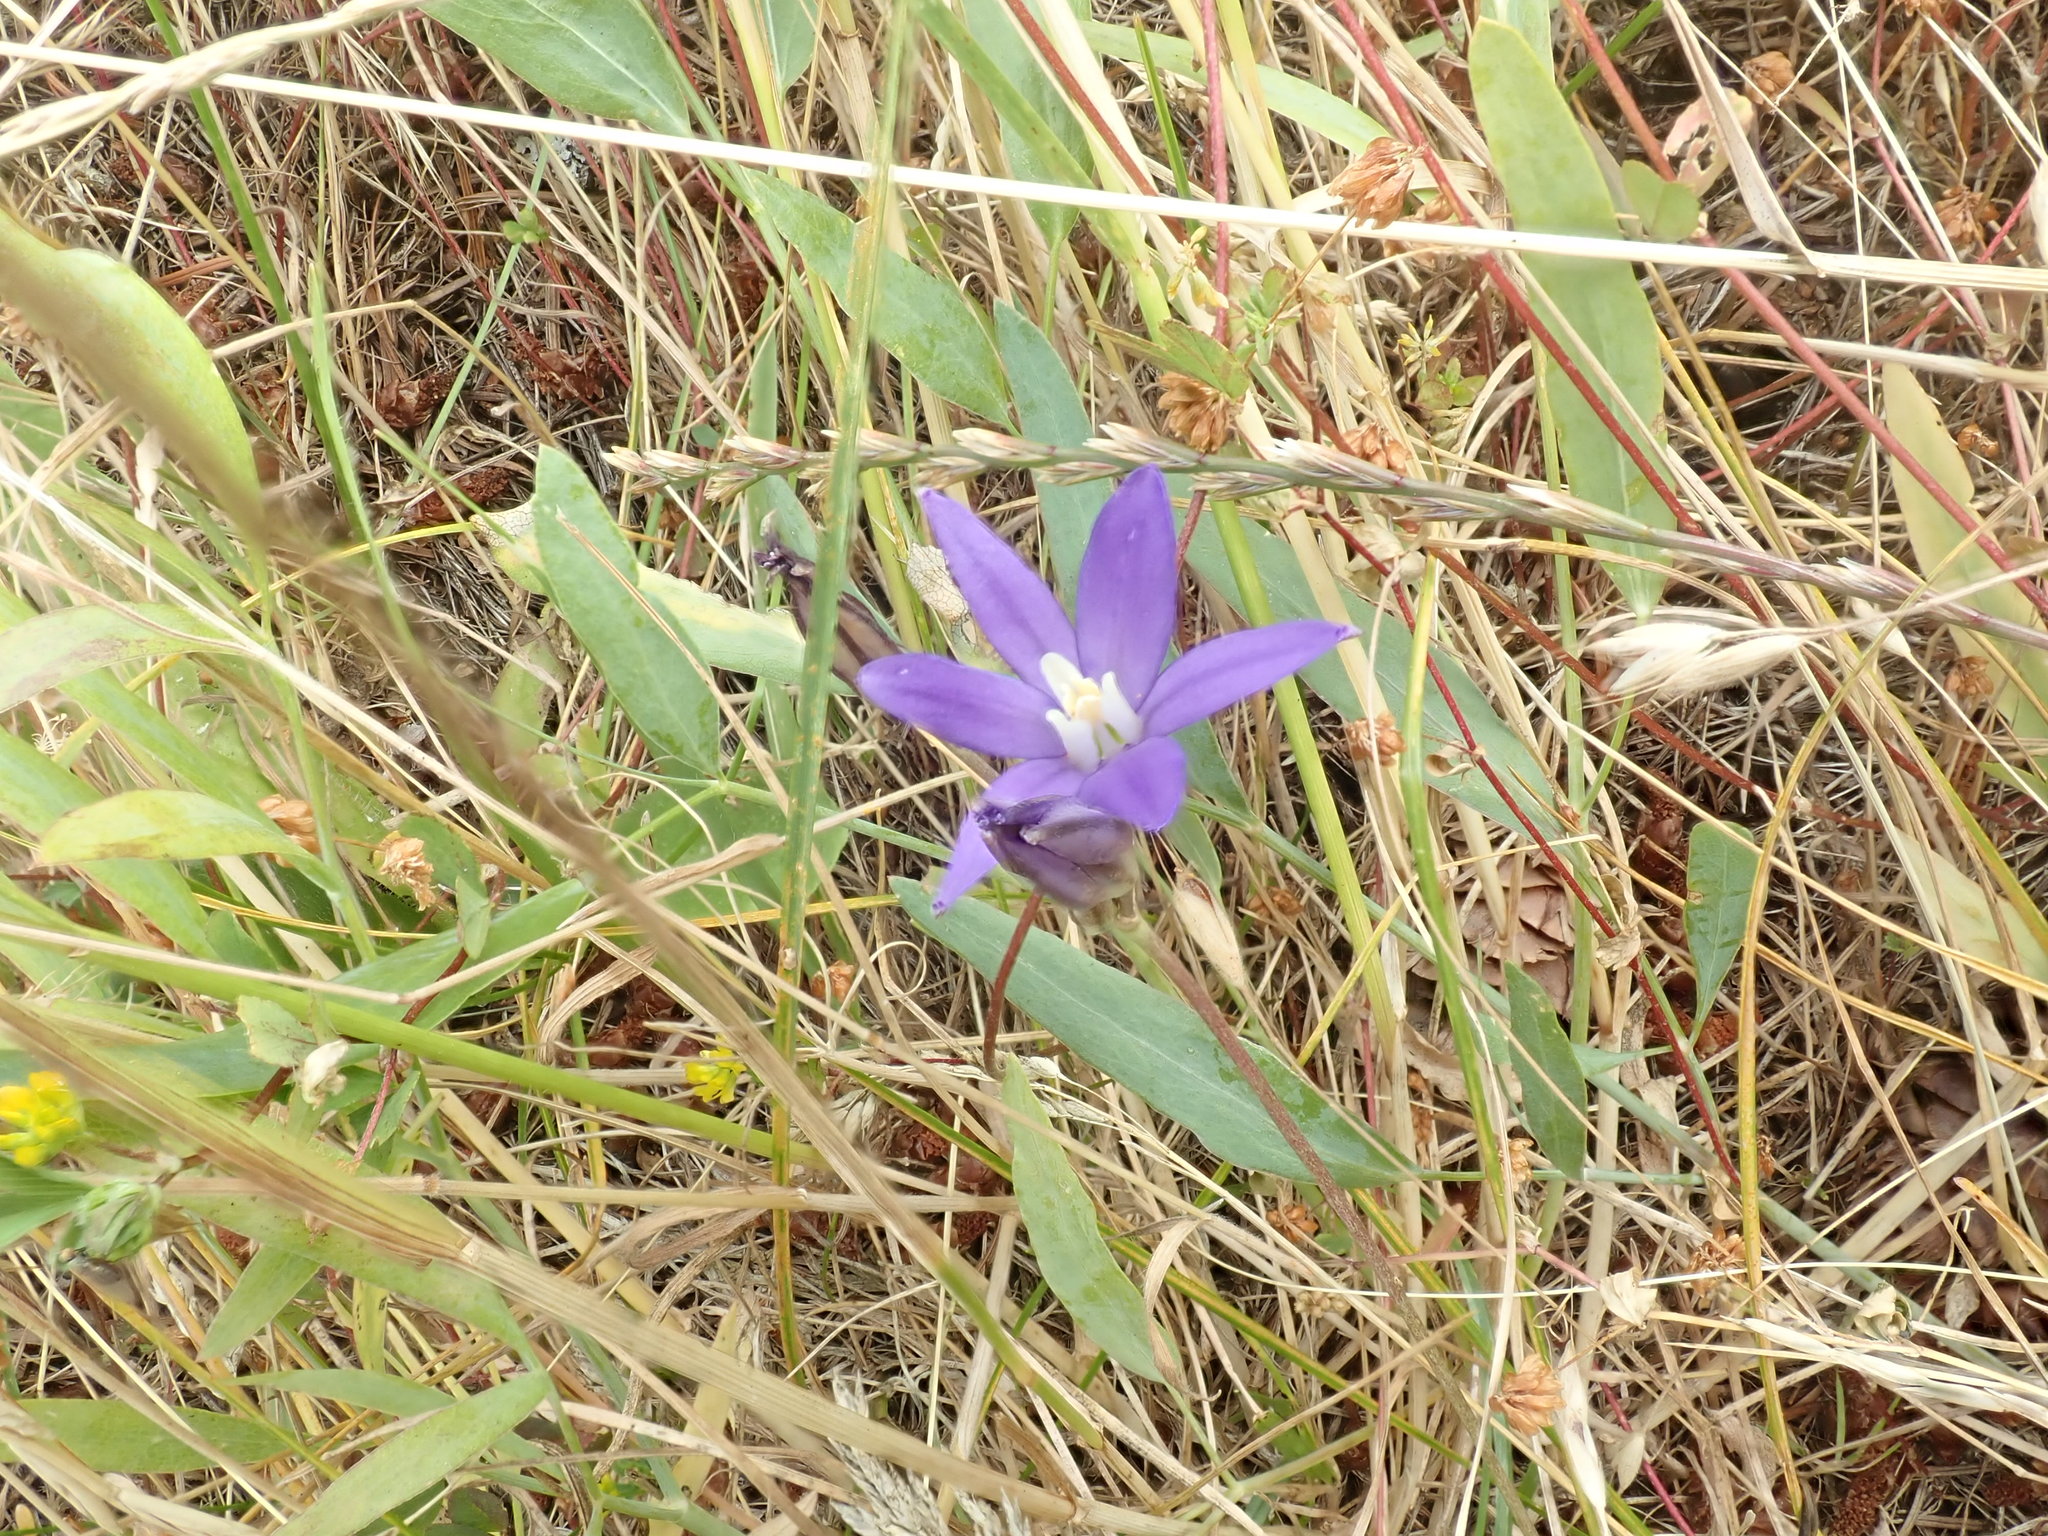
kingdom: Plantae
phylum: Tracheophyta
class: Liliopsida
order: Asparagales
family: Asparagaceae
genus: Brodiaea
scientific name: Brodiaea coronaria
